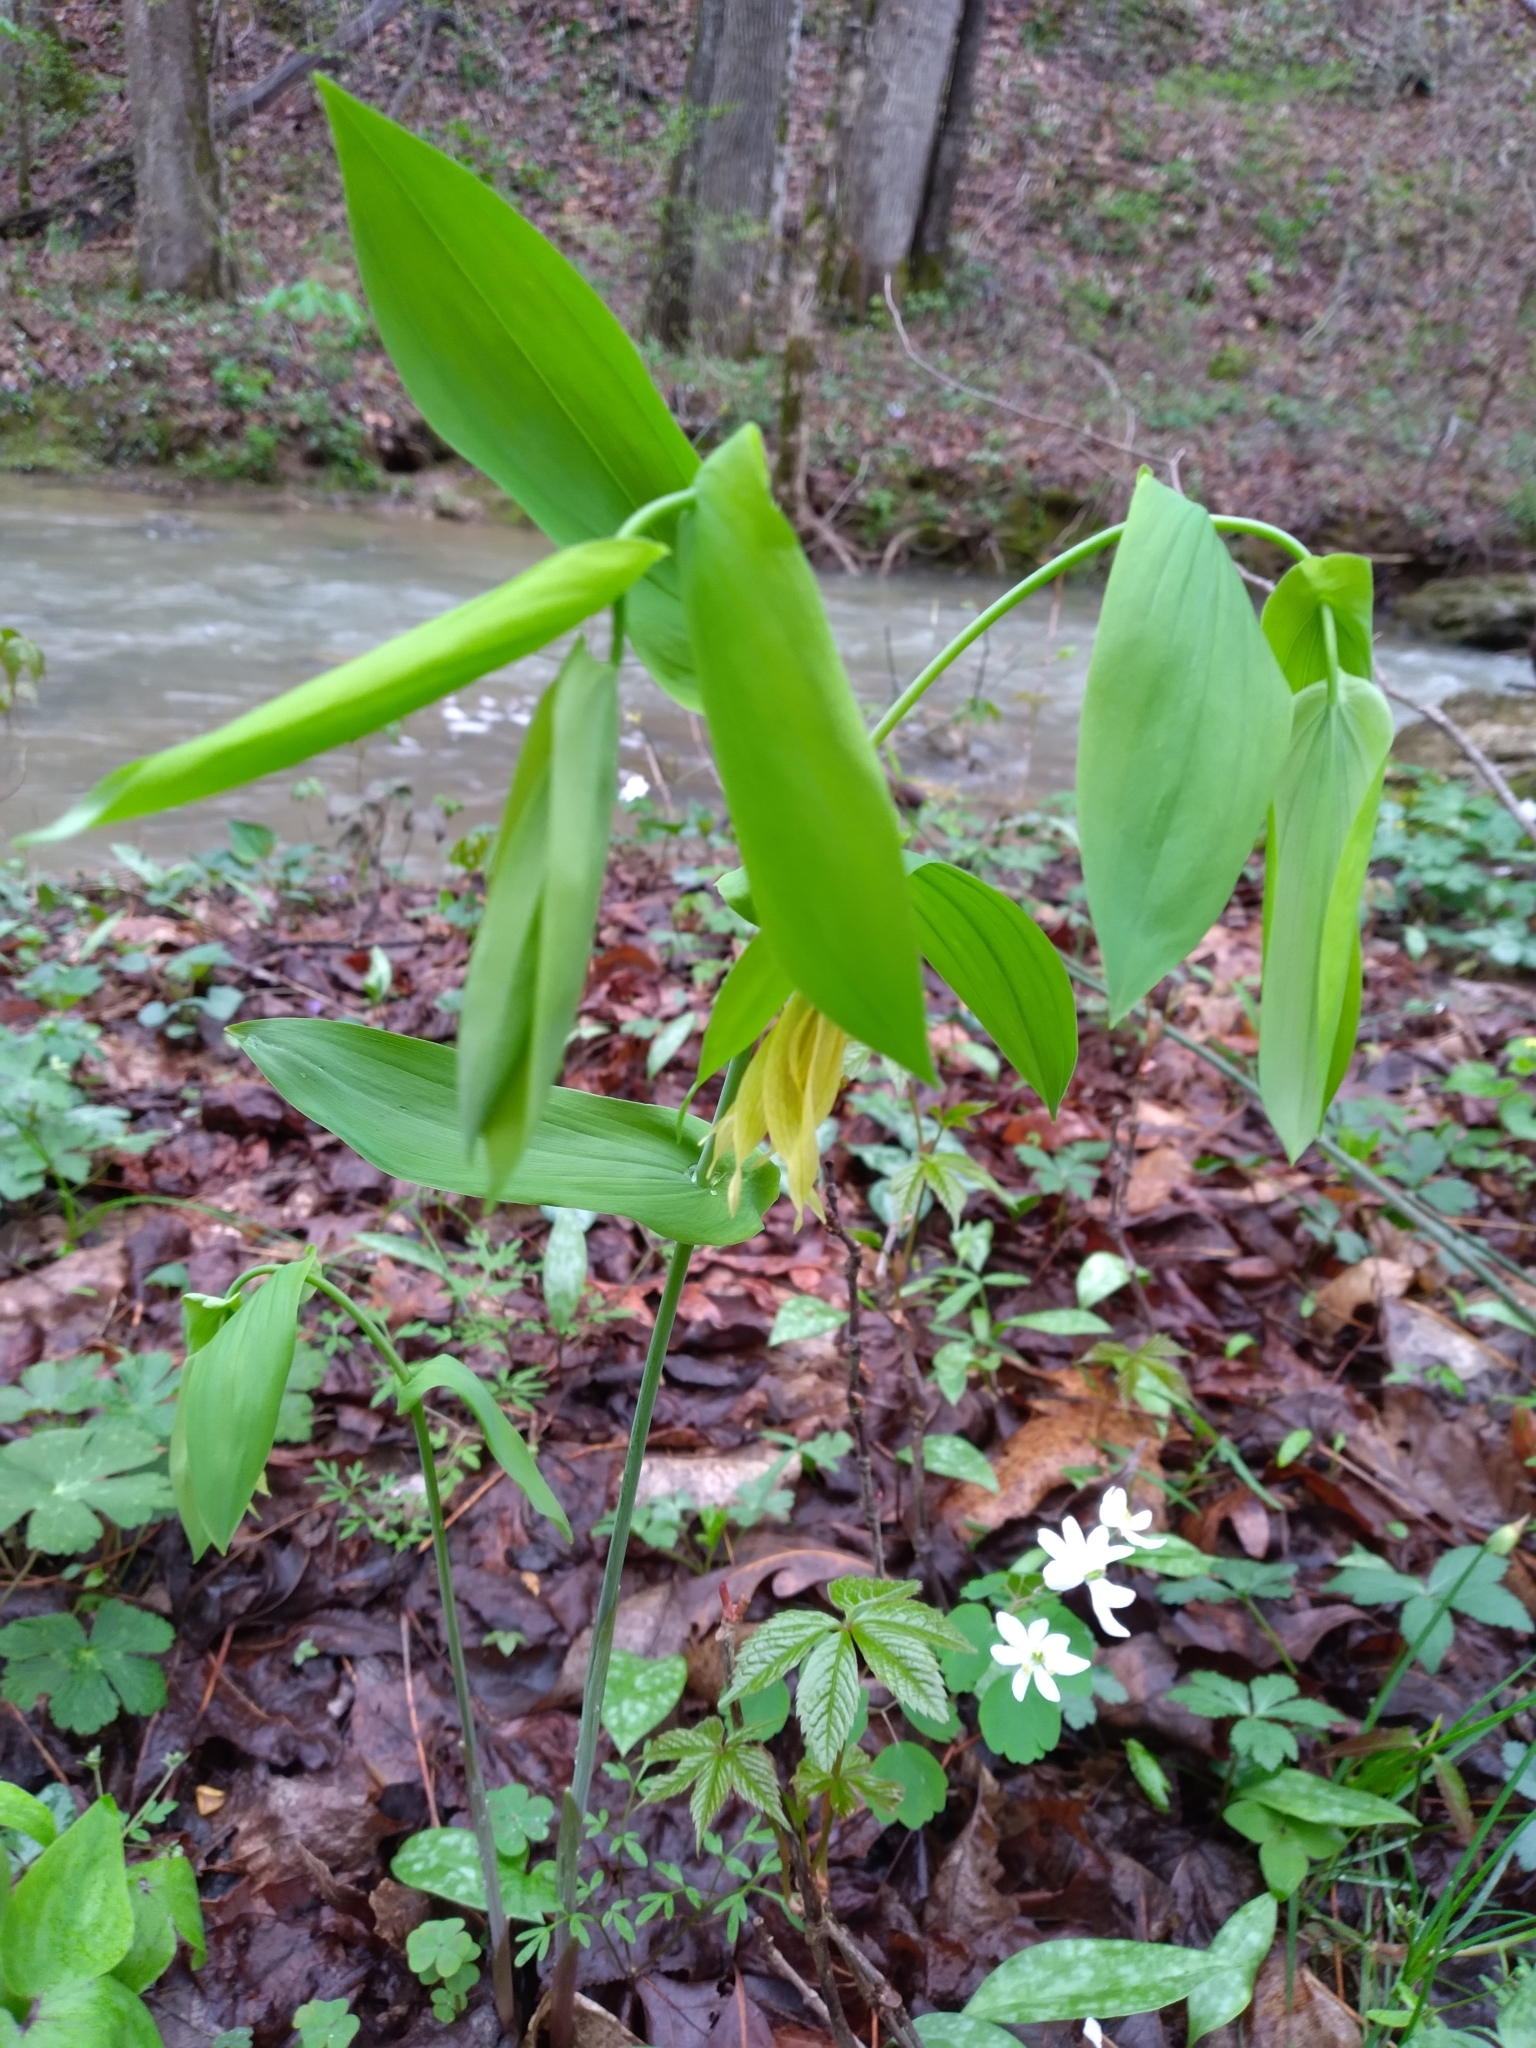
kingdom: Plantae
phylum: Tracheophyta
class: Liliopsida
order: Liliales
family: Colchicaceae
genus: Uvularia
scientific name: Uvularia grandiflora
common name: Bellwort
